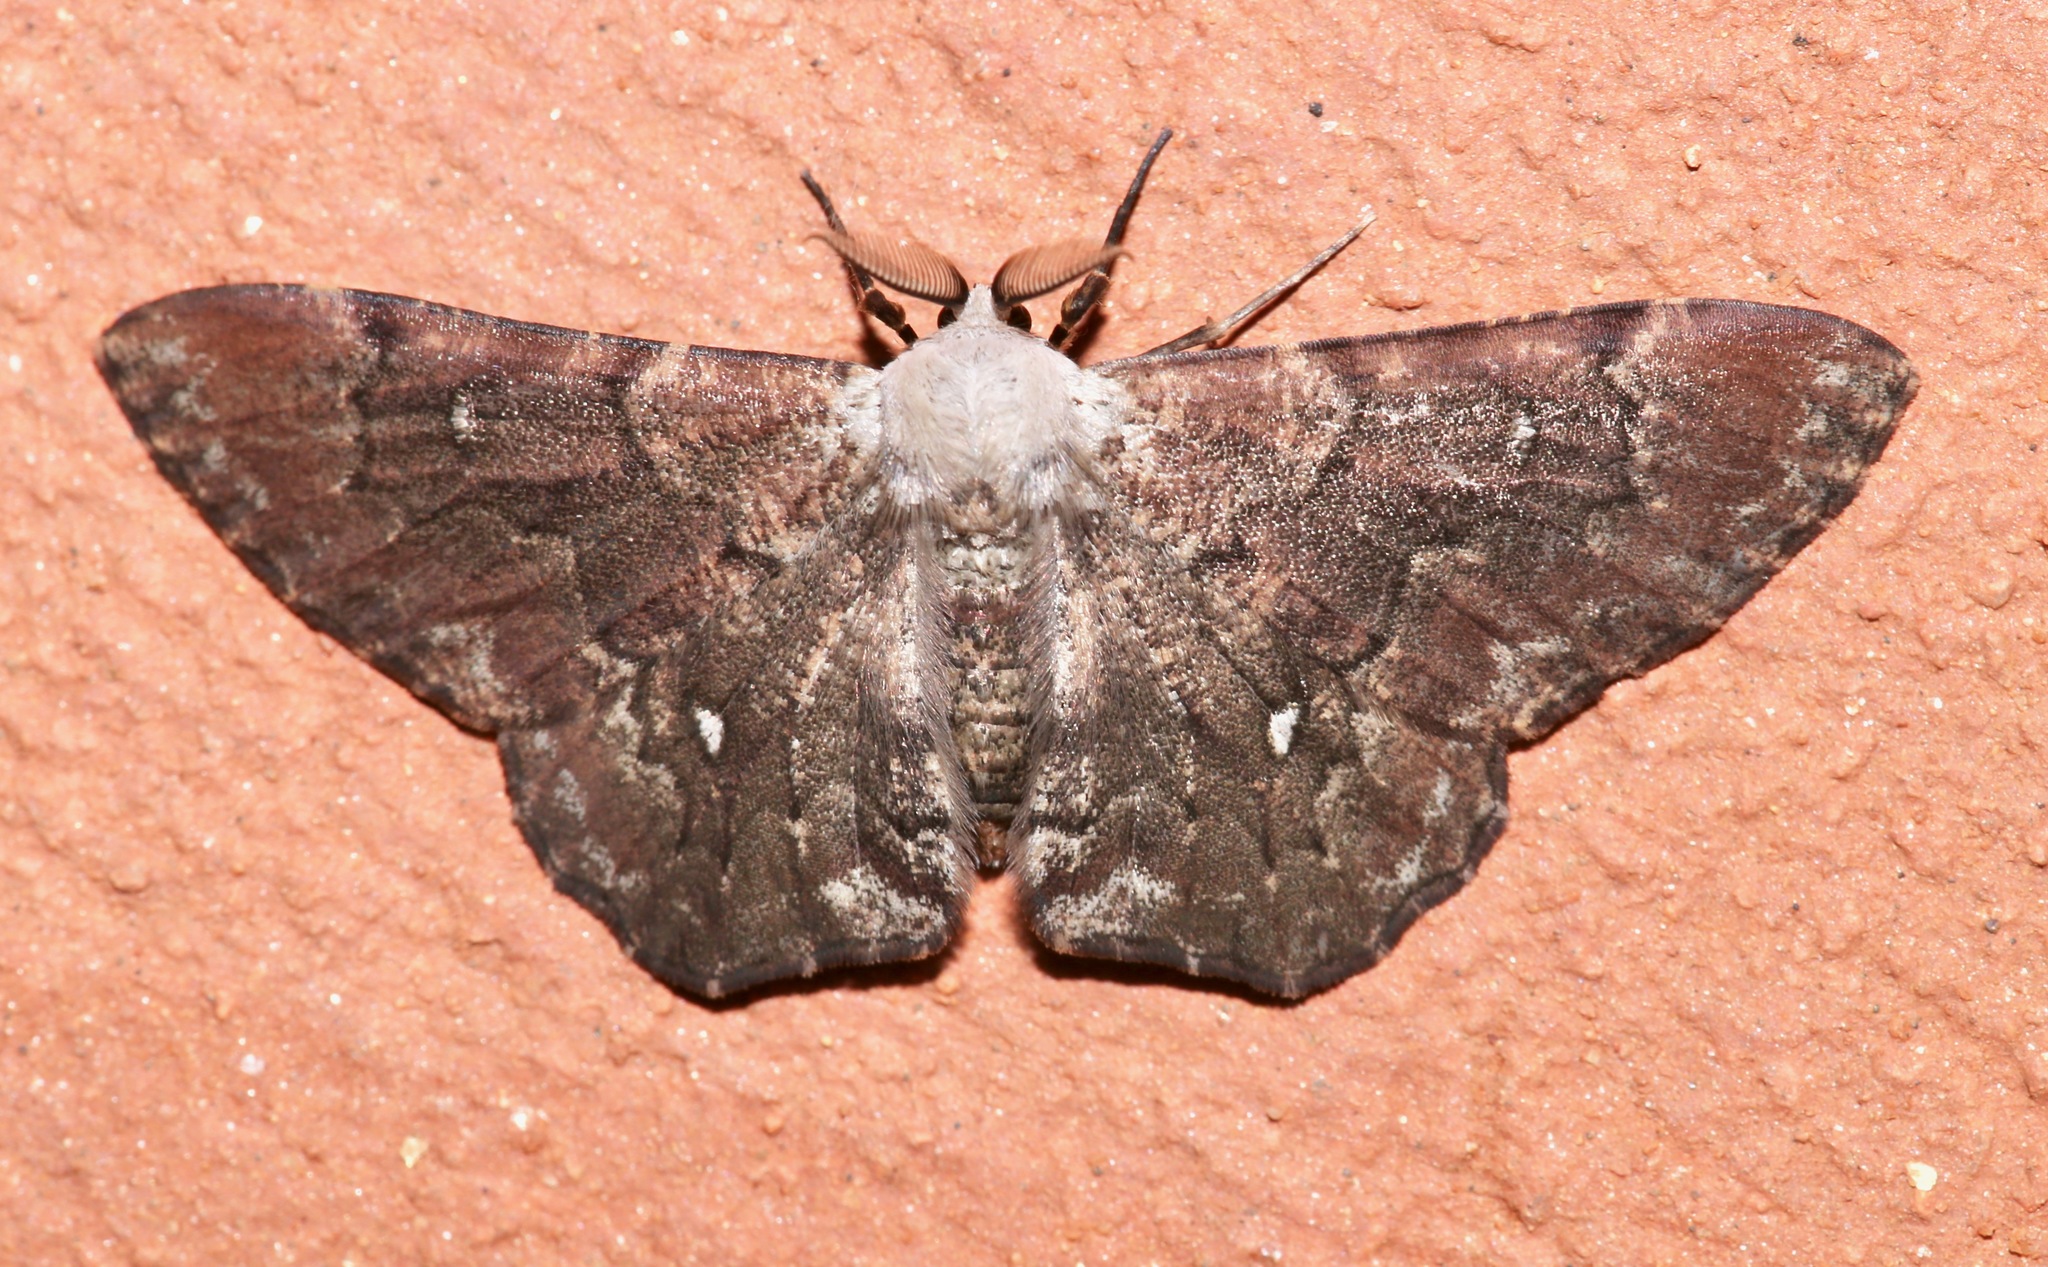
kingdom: Animalia
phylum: Arthropoda
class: Insecta
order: Lepidoptera
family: Geometridae
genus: Thyrinteina
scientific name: Thyrinteina arnobia
